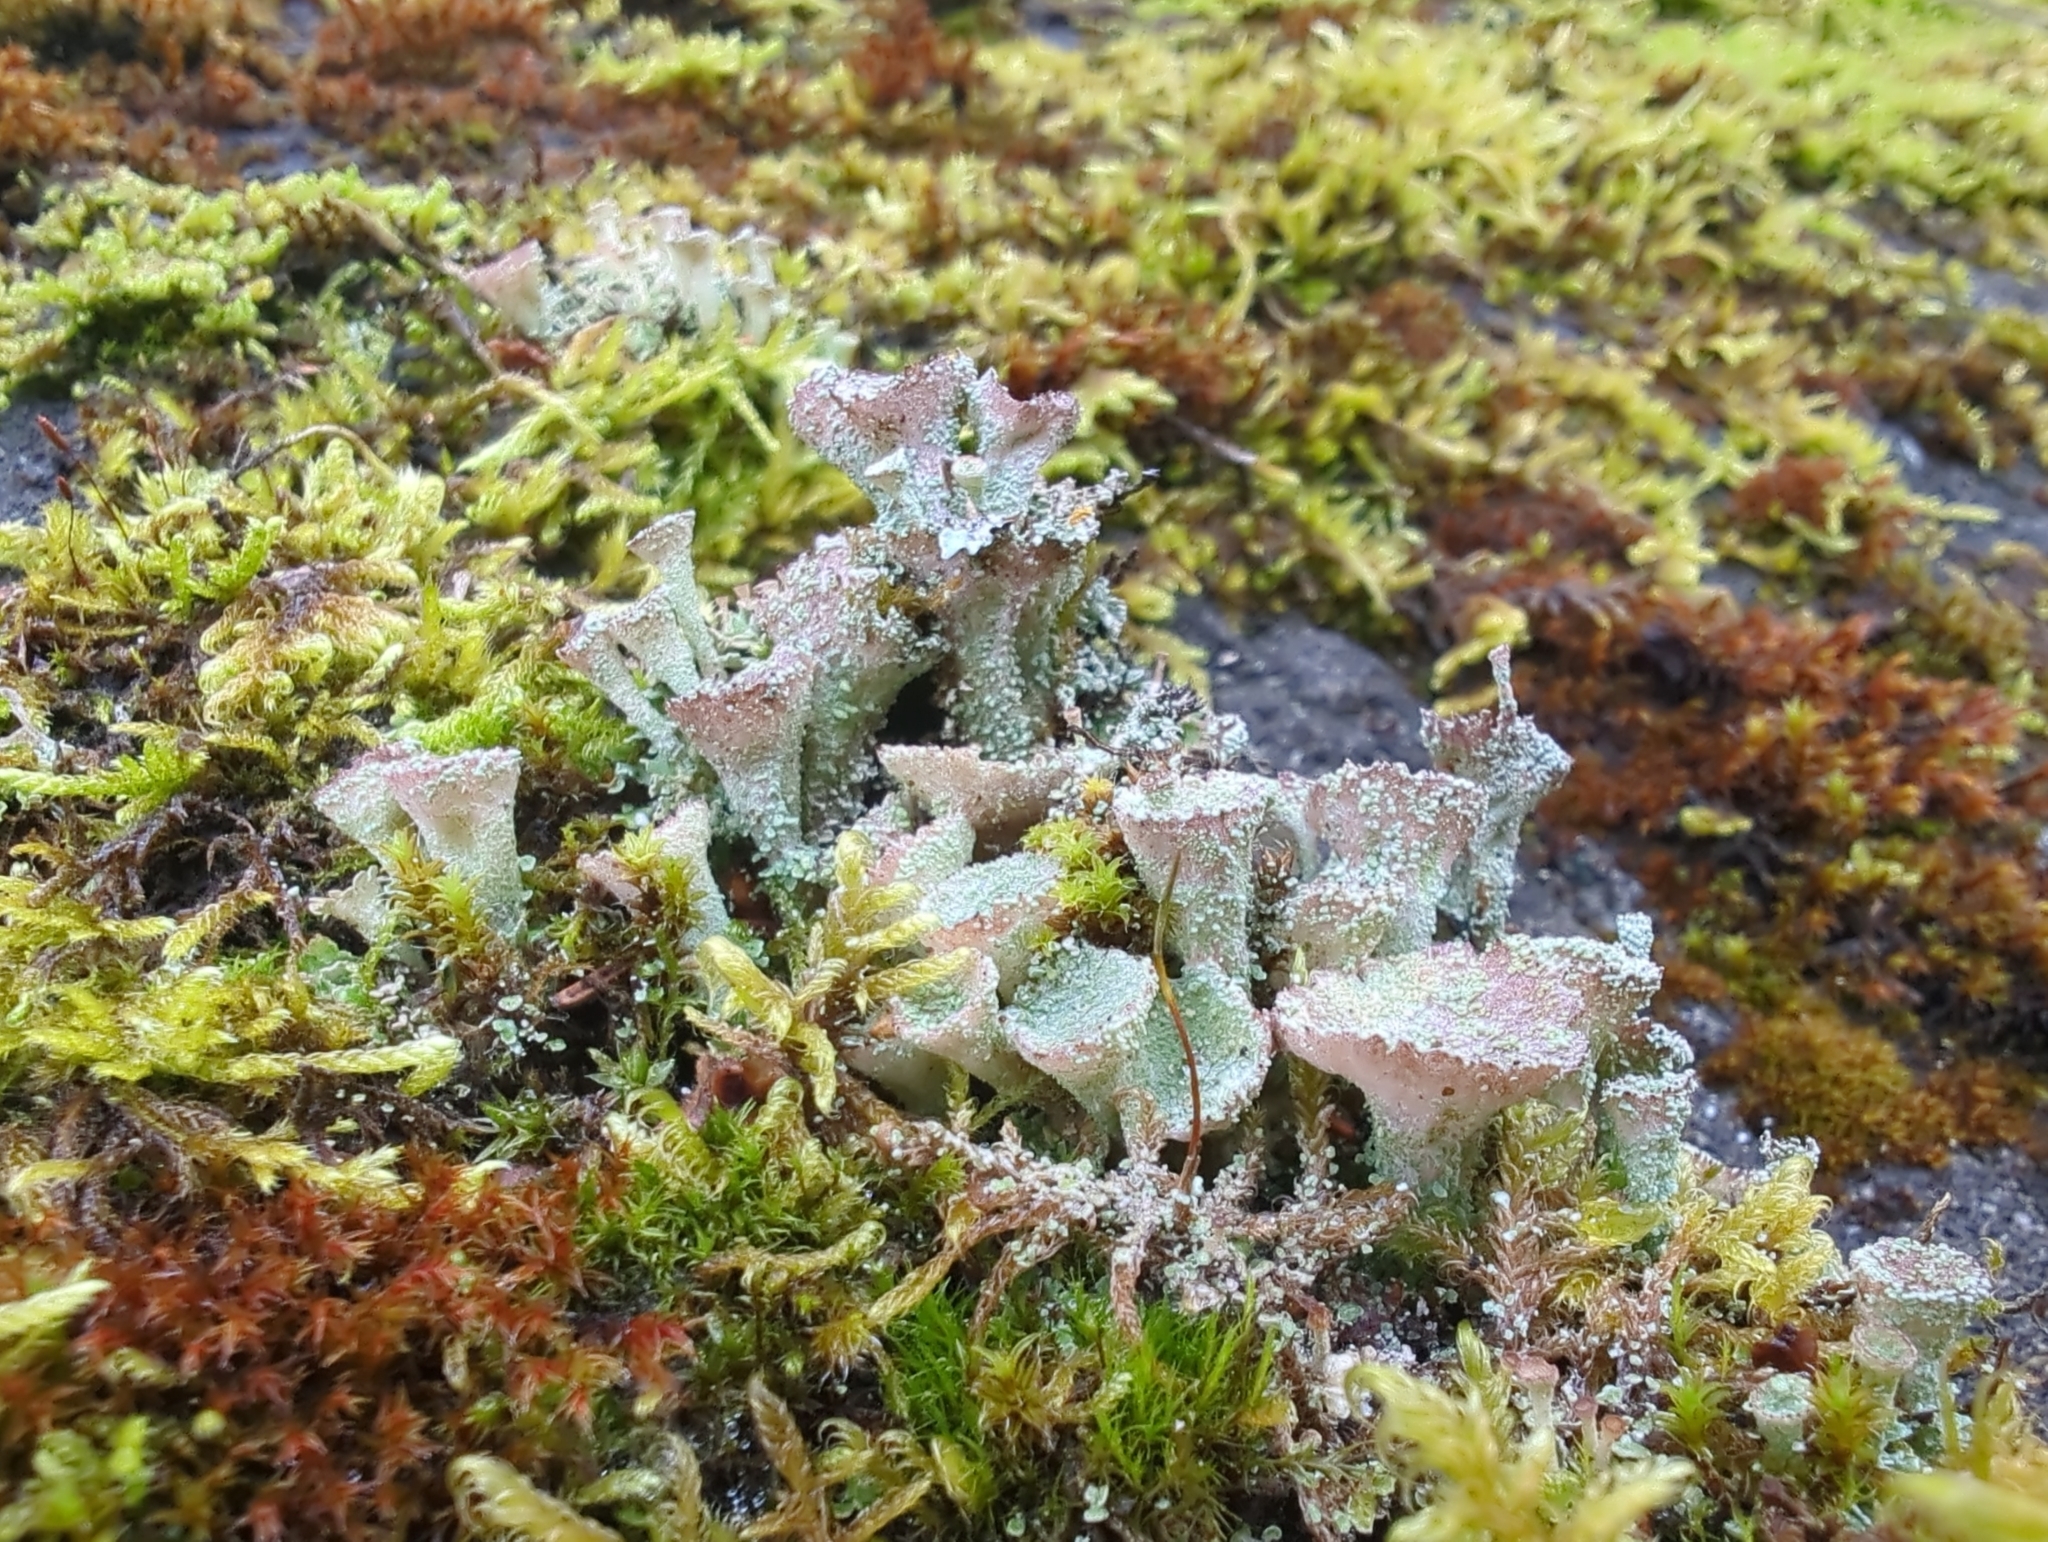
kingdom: Fungi
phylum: Ascomycota
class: Lecanoromycetes
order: Lecanorales
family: Cladoniaceae
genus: Cladonia
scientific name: Cladonia pyxidata
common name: Pebbled pixie cup
